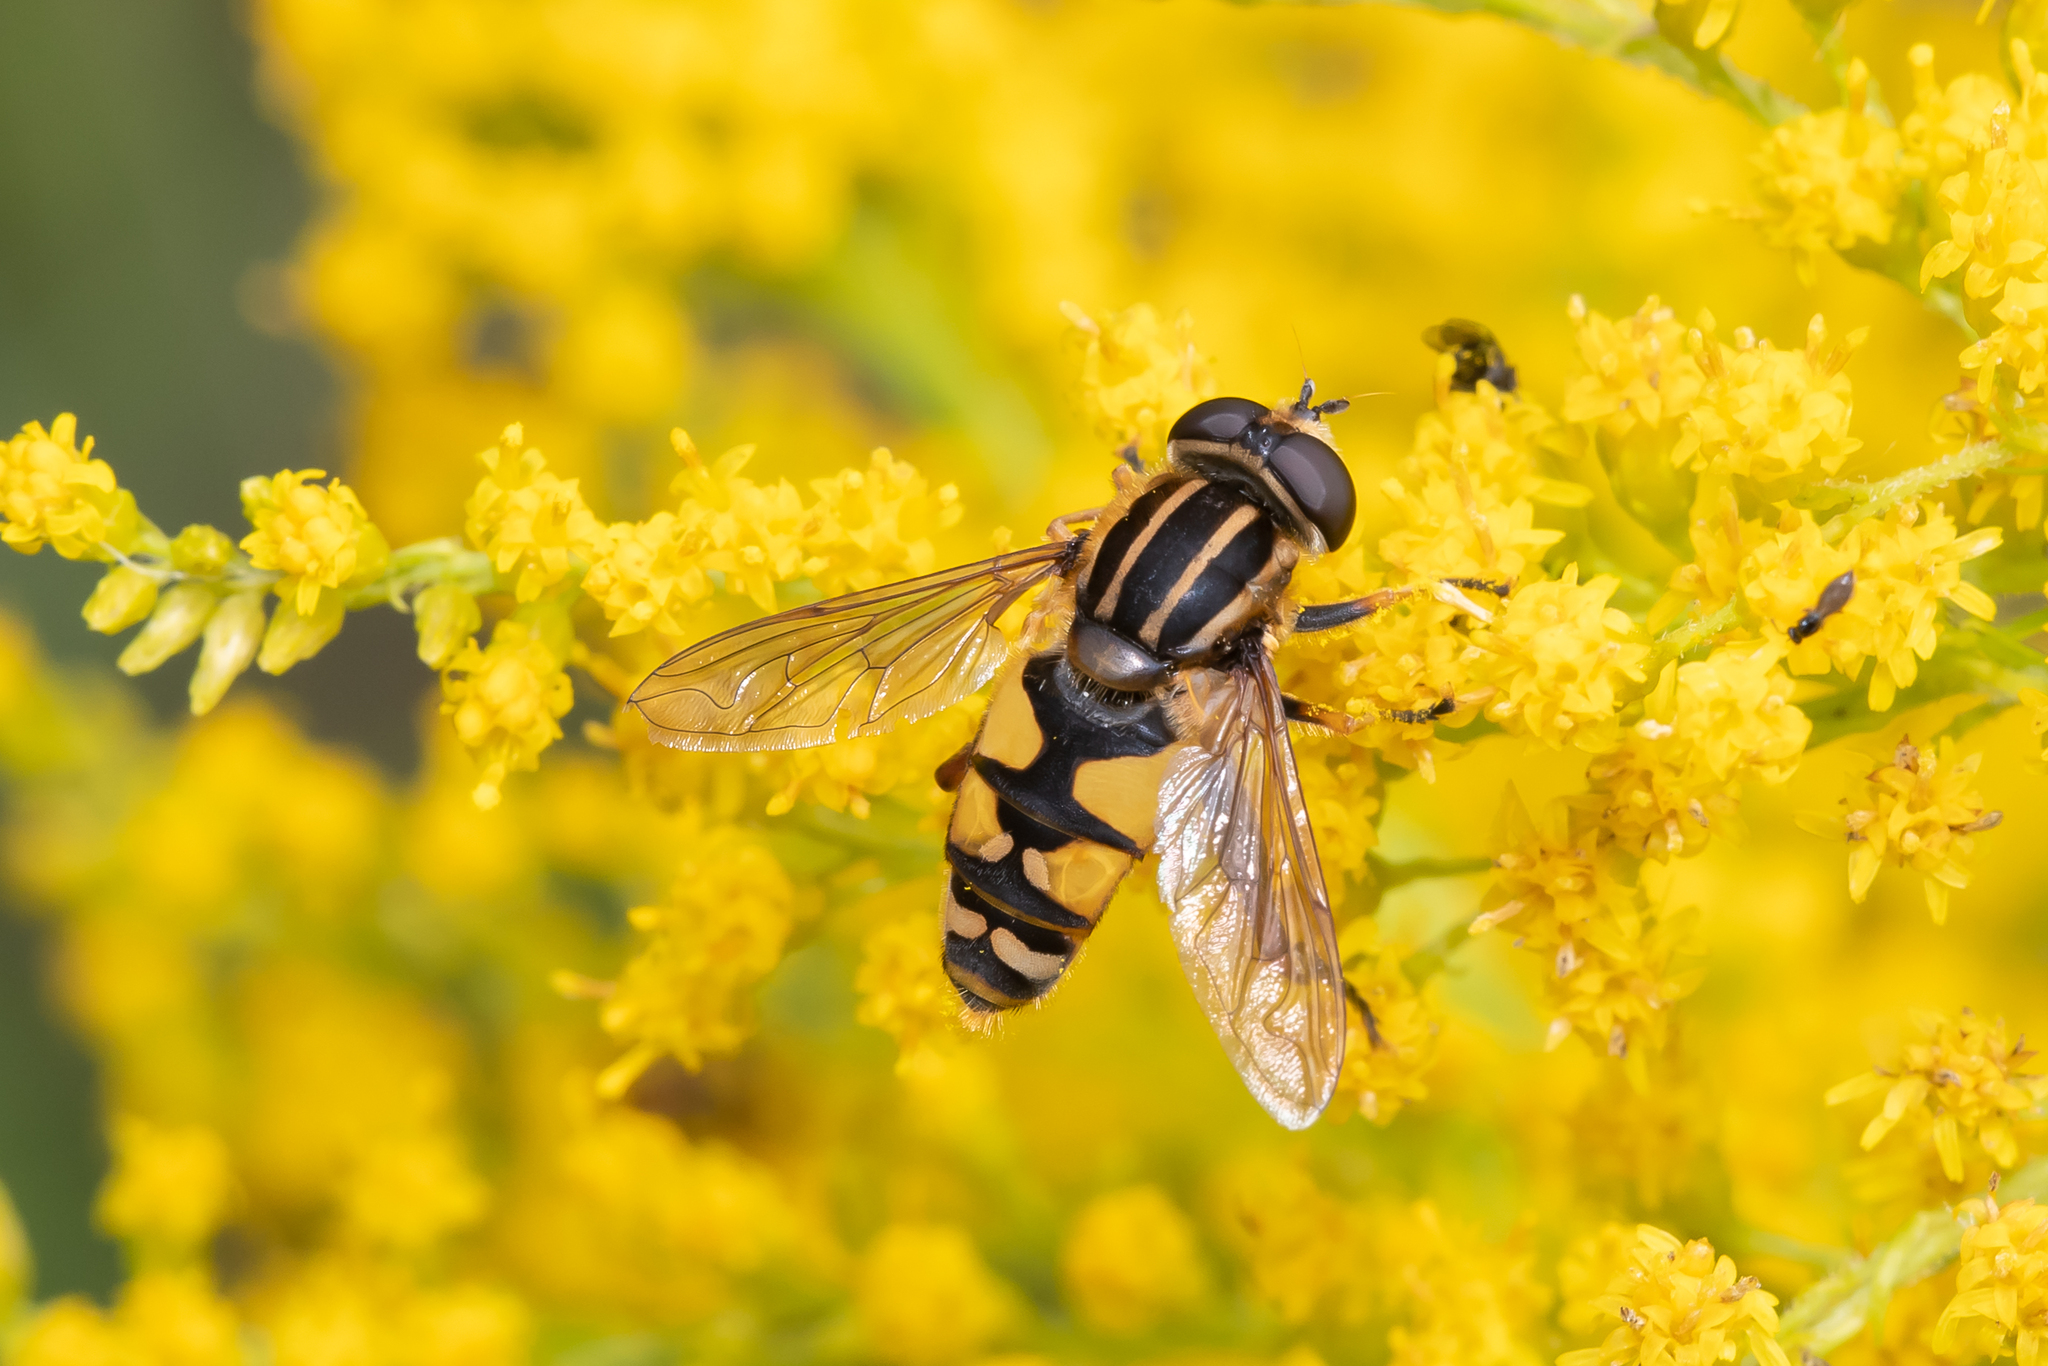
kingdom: Animalia
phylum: Arthropoda
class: Insecta
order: Diptera
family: Syrphidae
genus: Helophilus
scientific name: Helophilus pendulus
